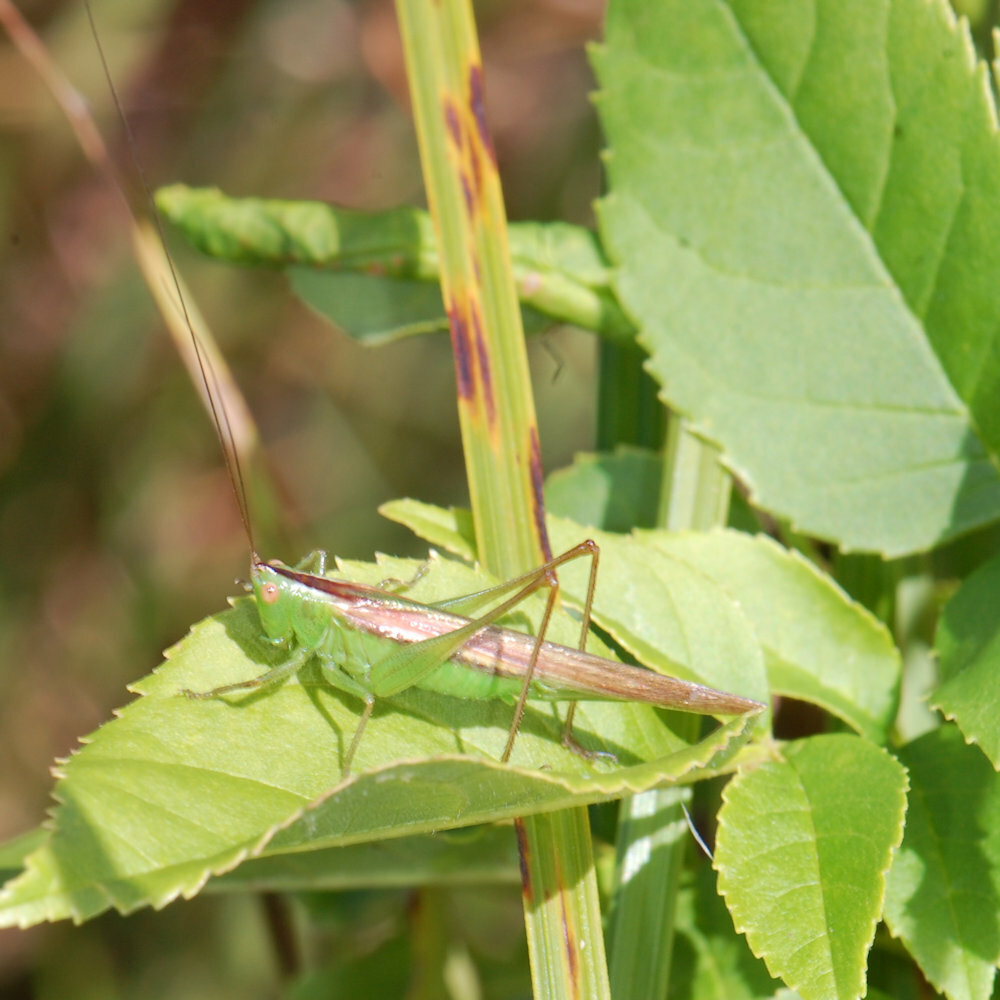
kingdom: Animalia
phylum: Arthropoda
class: Insecta
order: Orthoptera
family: Tettigoniidae
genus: Conocephalus
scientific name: Conocephalus fasciatus
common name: Slender meadow katydid
